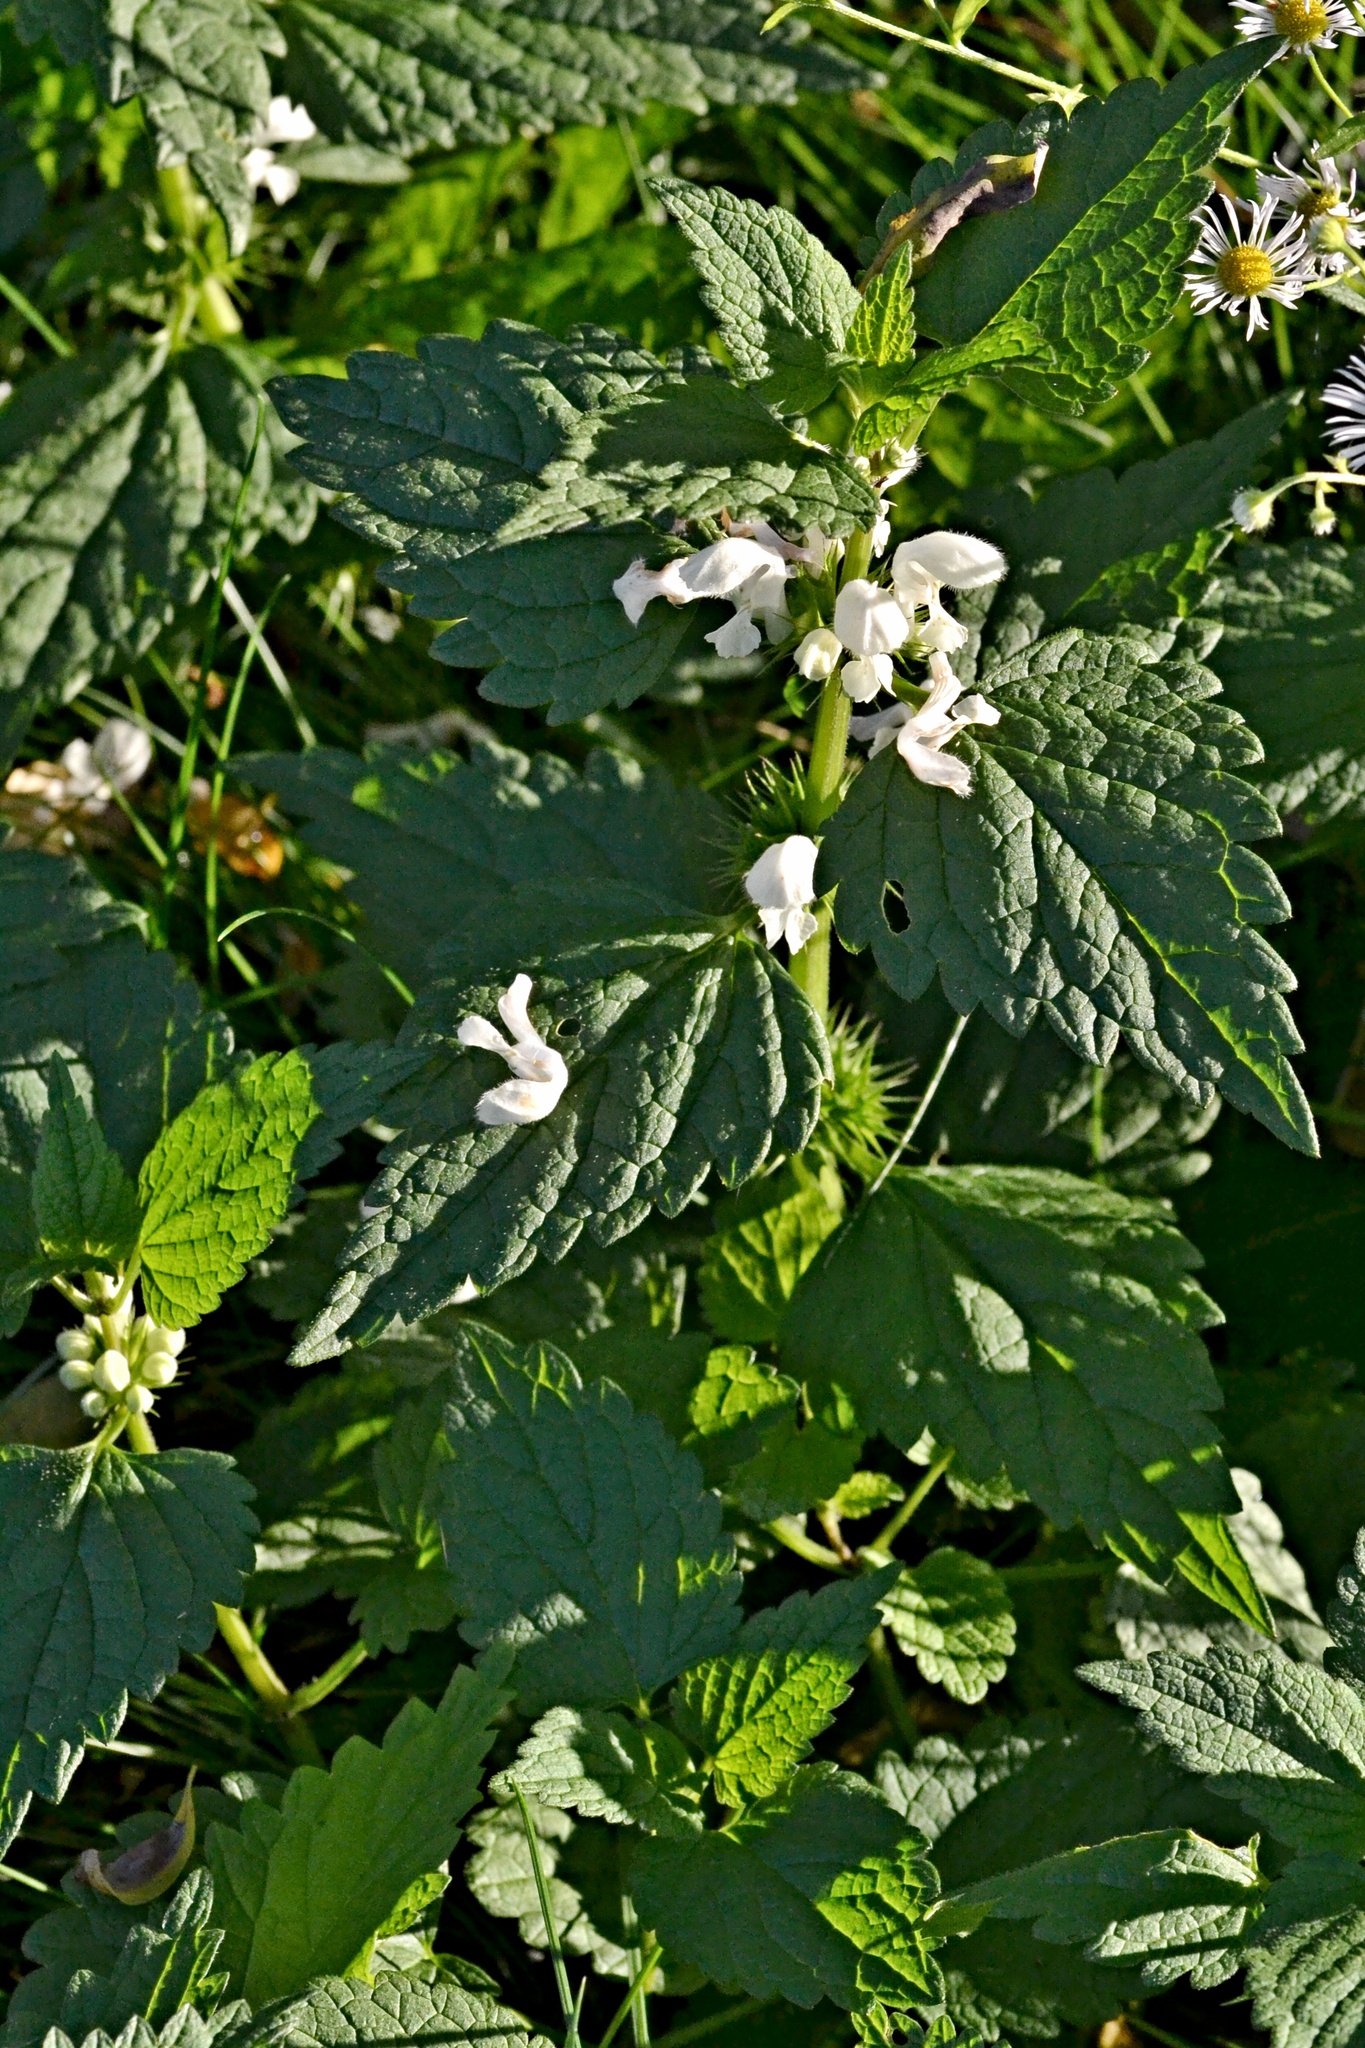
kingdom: Plantae
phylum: Tracheophyta
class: Magnoliopsida
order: Lamiales
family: Lamiaceae
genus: Lamium
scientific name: Lamium album
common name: White dead-nettle
